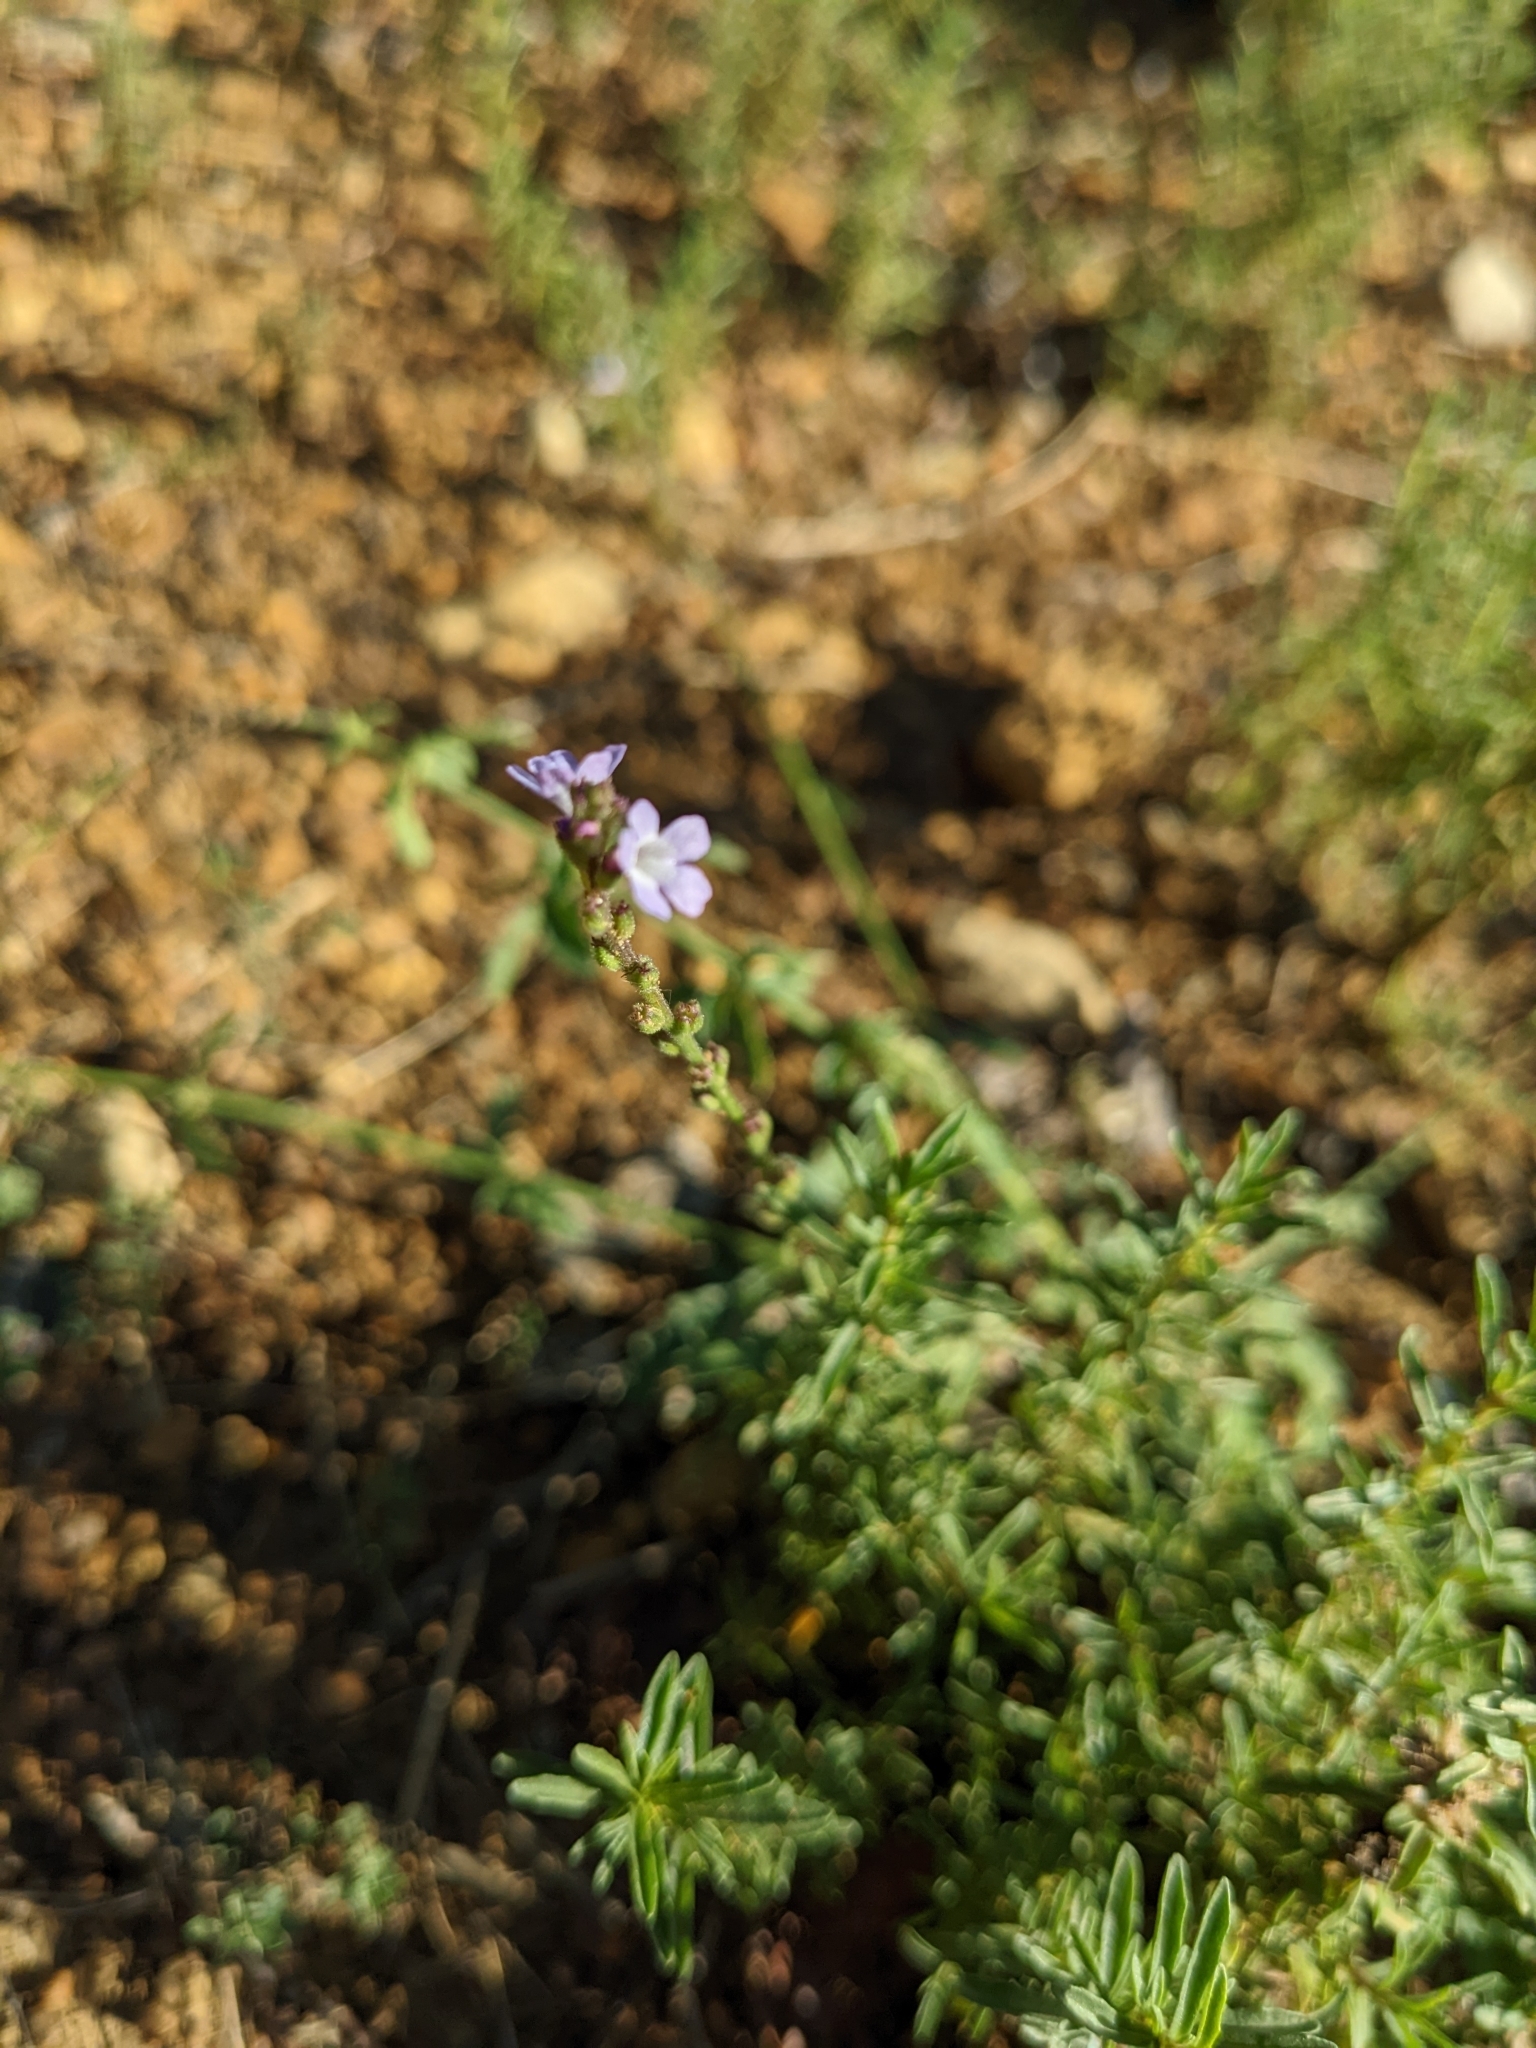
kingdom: Plantae
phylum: Tracheophyta
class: Magnoliopsida
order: Lamiales
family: Verbenaceae
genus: Verbena
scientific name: Verbena officinalis
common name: Vervain
